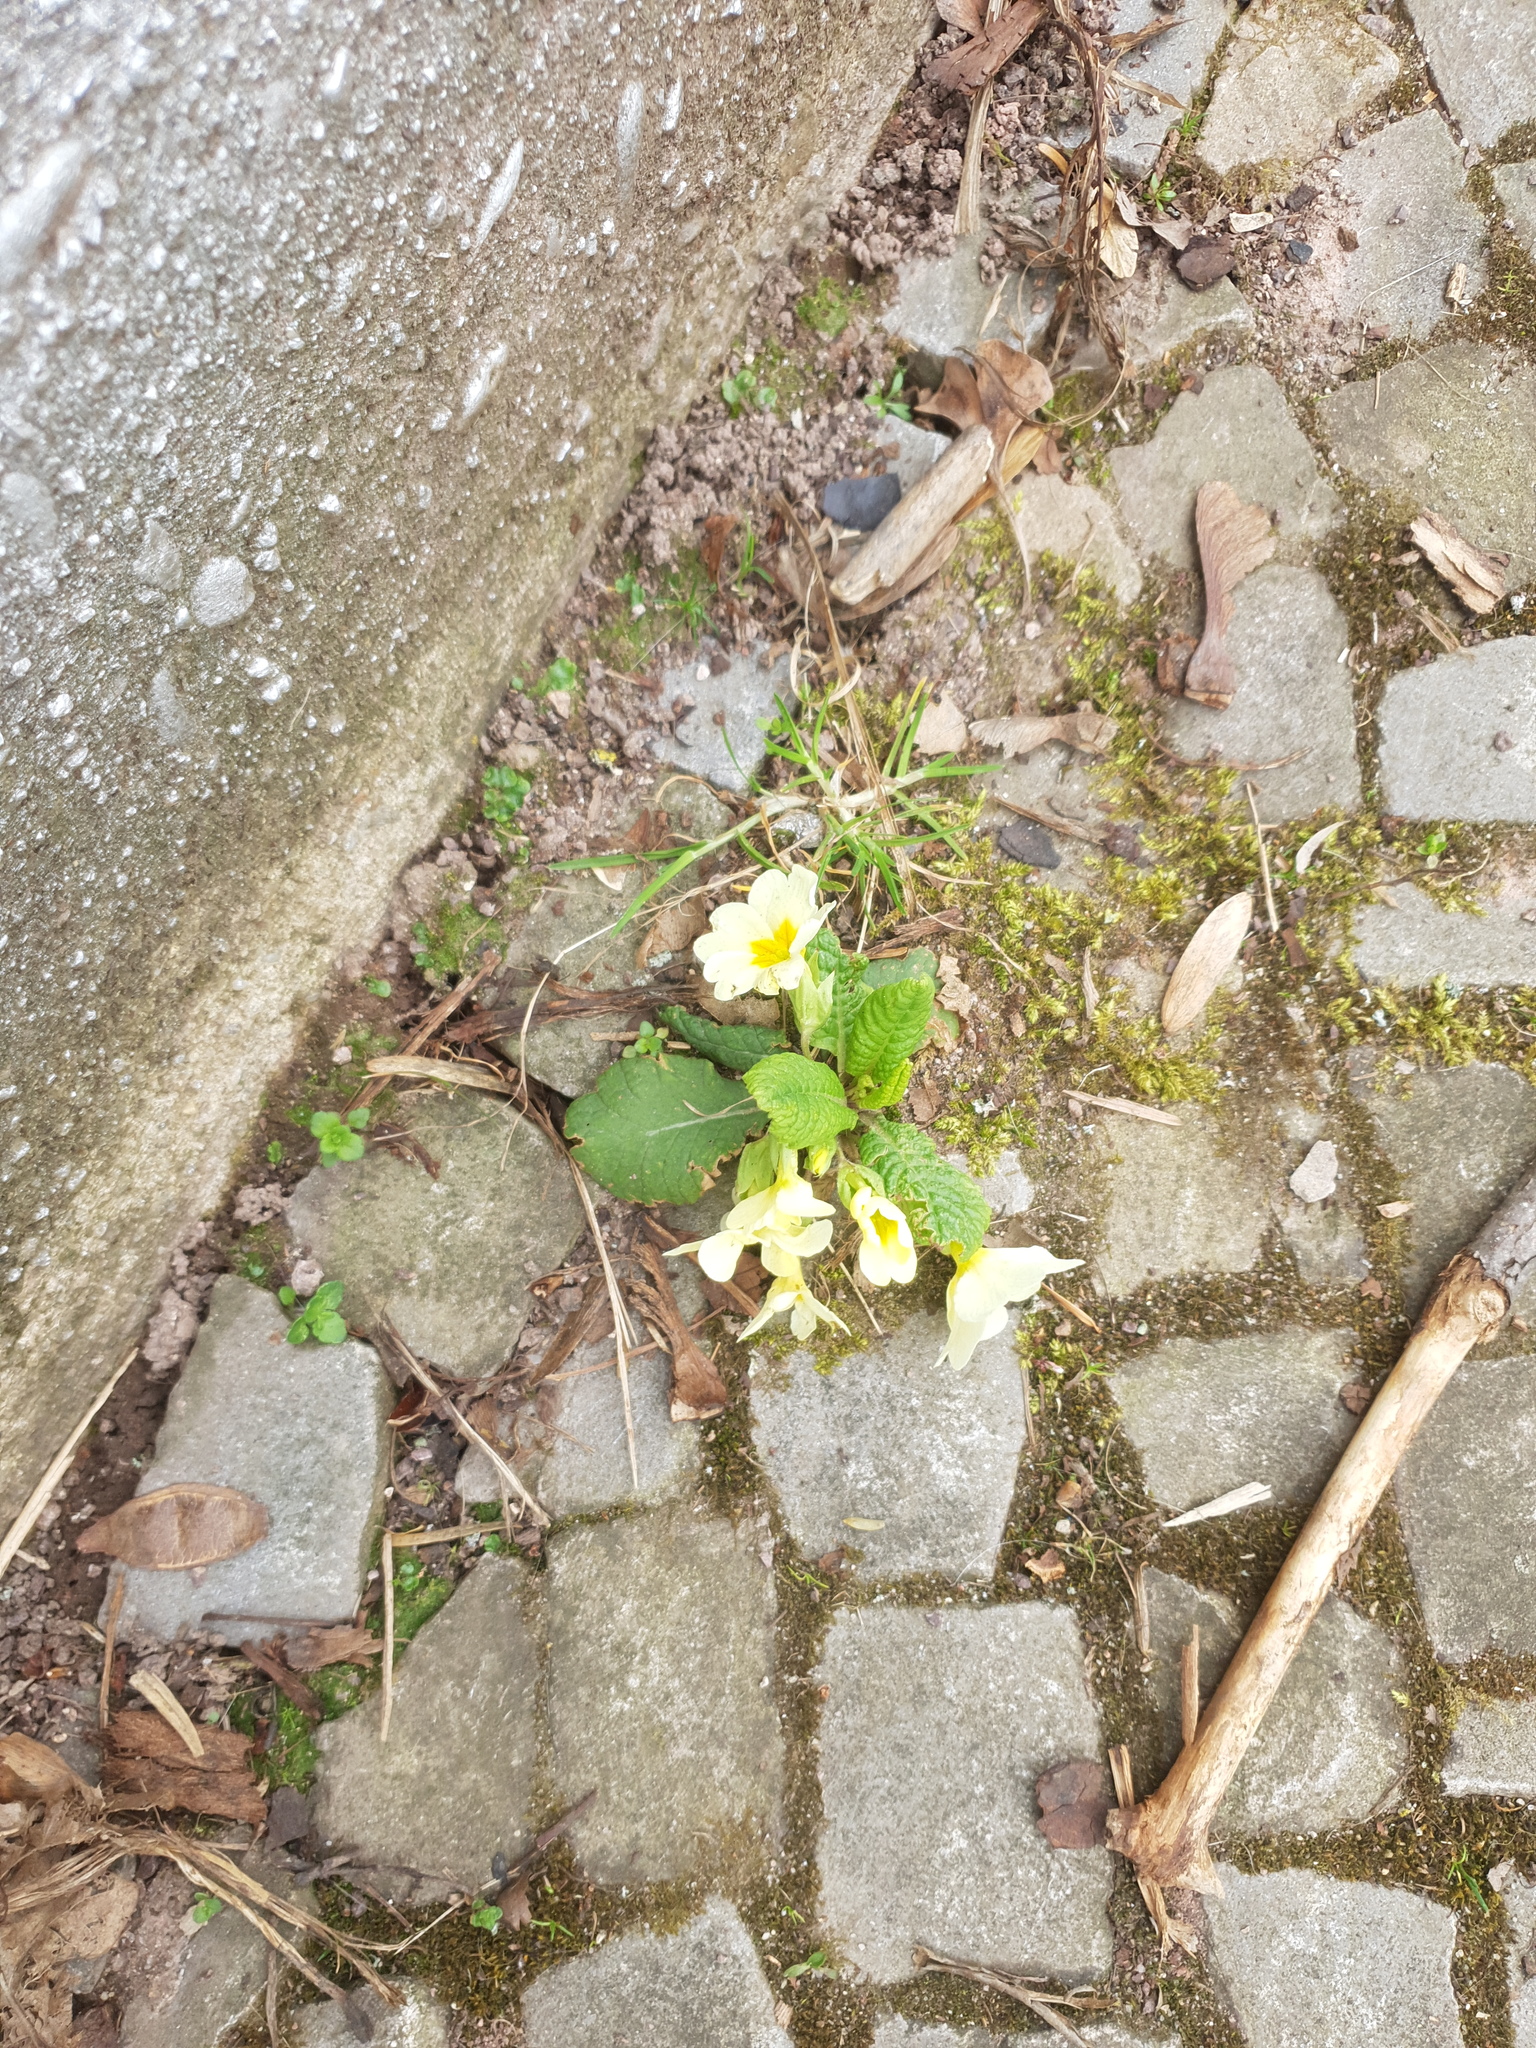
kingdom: Plantae
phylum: Tracheophyta
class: Magnoliopsida
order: Ericales
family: Primulaceae
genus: Primula
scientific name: Primula vulgaris
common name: Primrose
